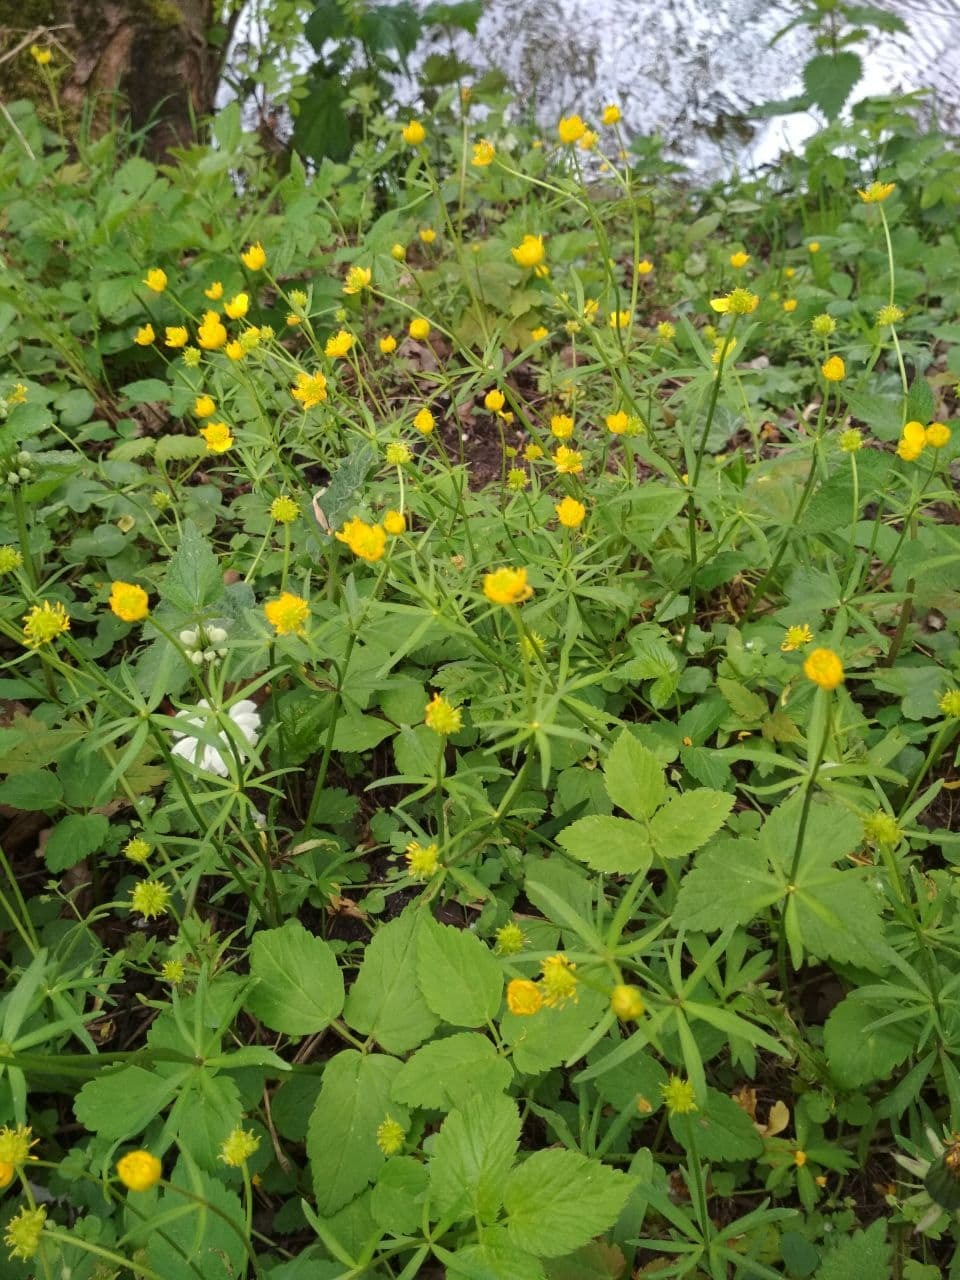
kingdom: Plantae
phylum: Tracheophyta
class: Magnoliopsida
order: Ranunculales
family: Ranunculaceae
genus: Ranunculus
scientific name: Ranunculus auricomus
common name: Goldilocks buttercup
